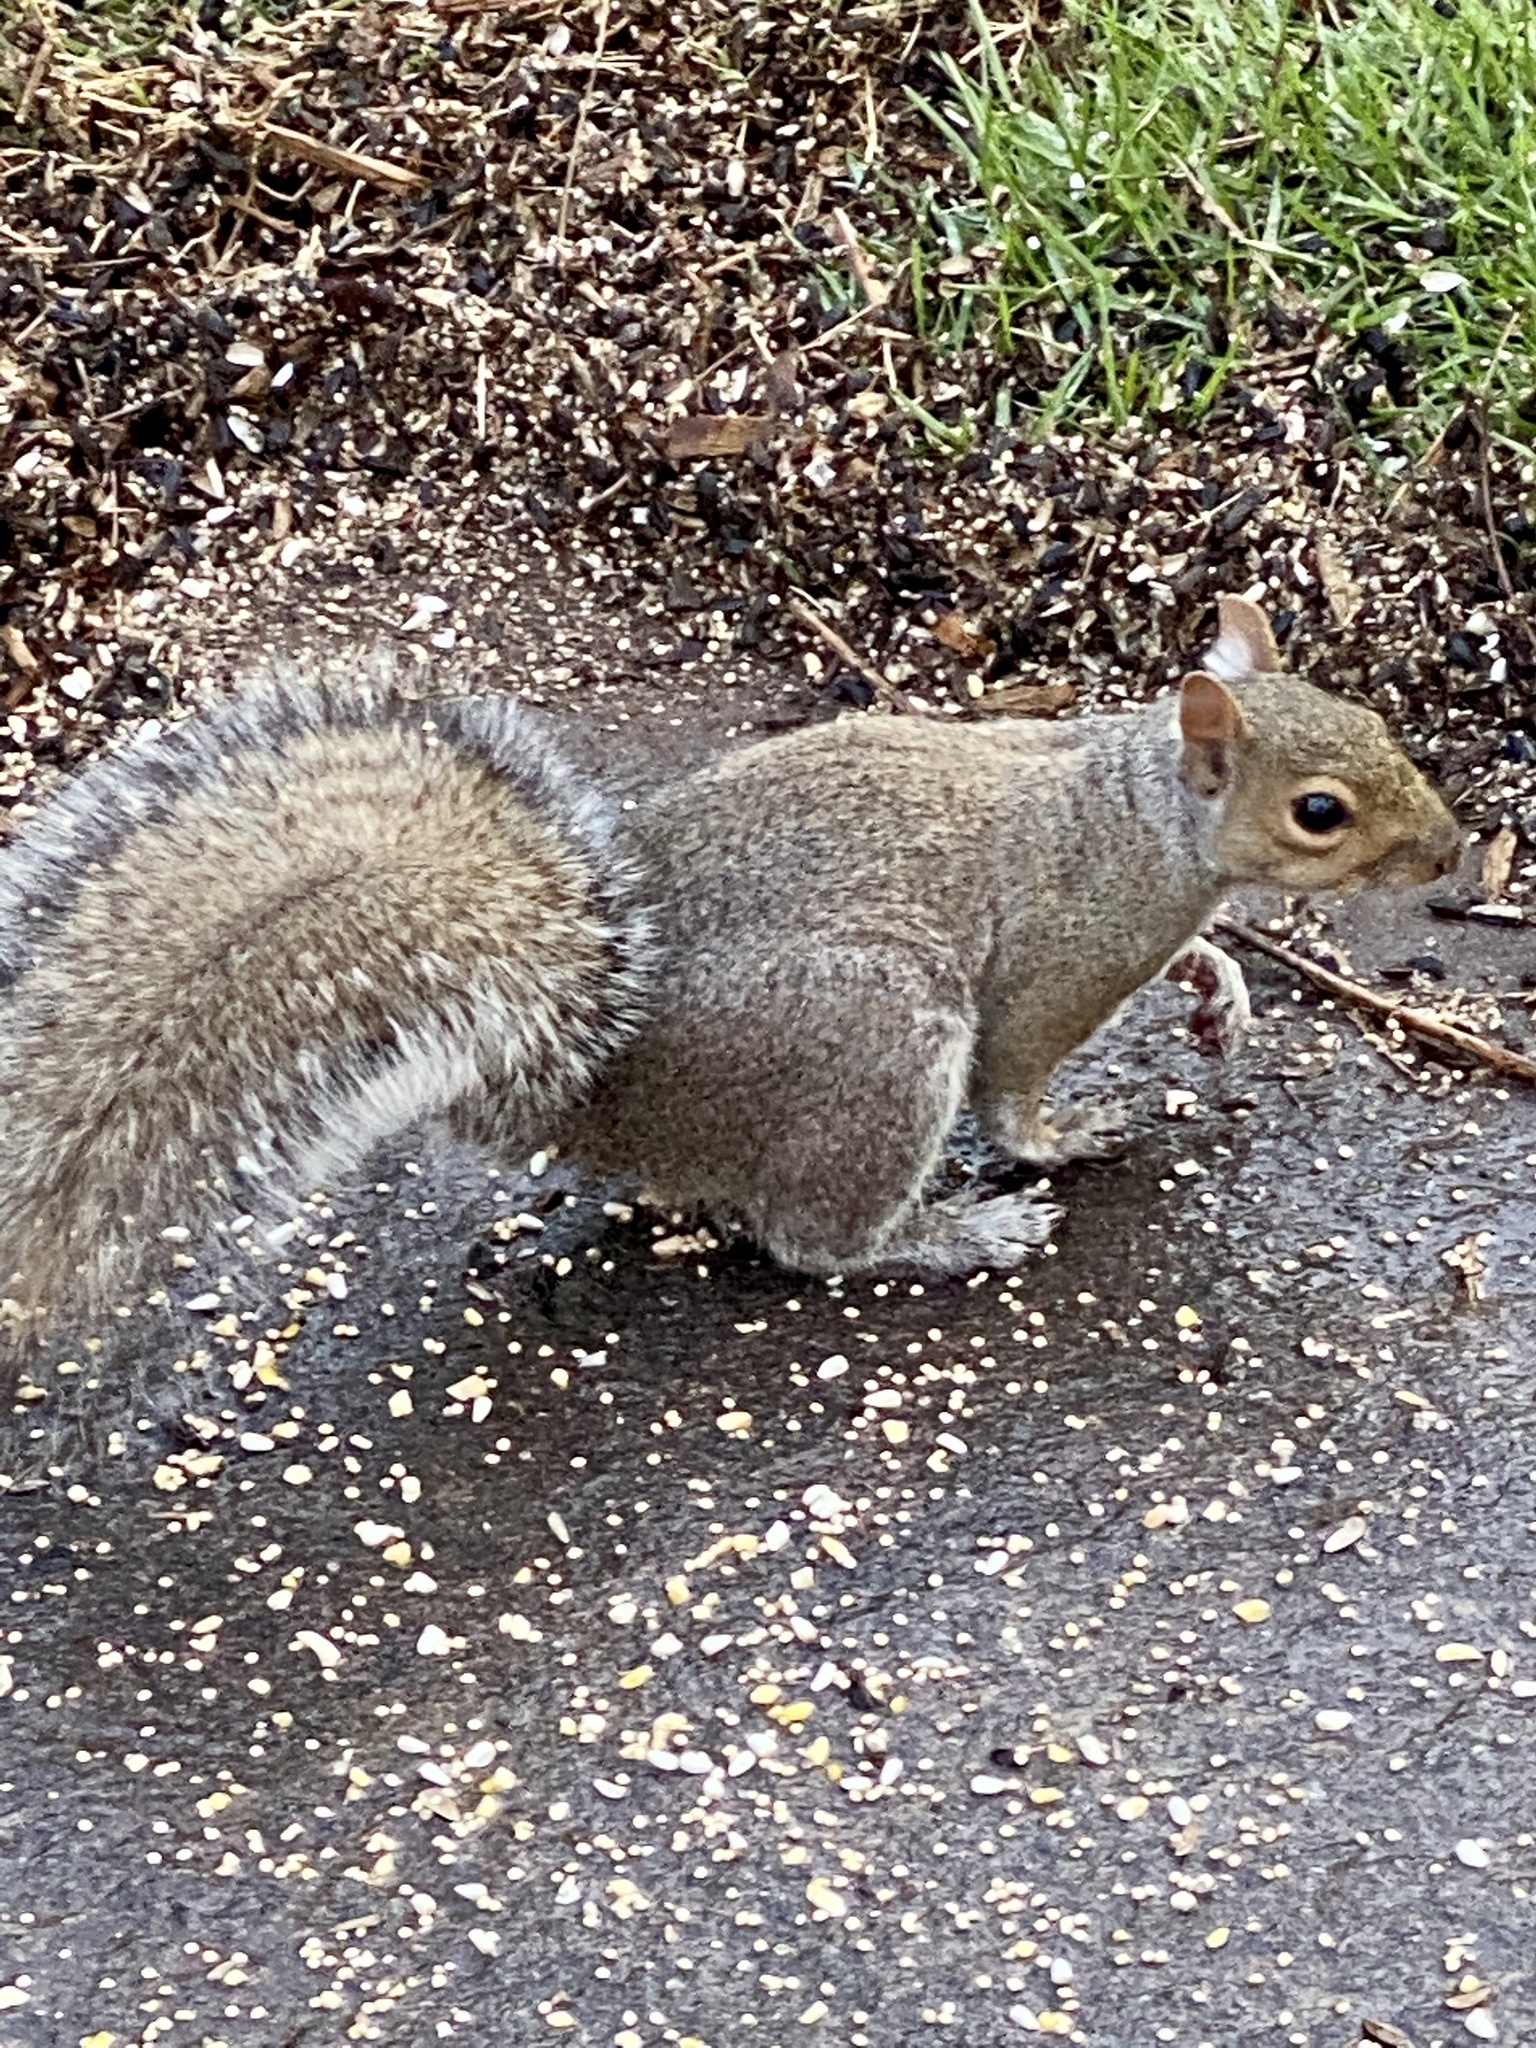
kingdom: Animalia
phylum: Chordata
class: Mammalia
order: Rodentia
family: Sciuridae
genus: Sciurus
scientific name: Sciurus carolinensis
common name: Eastern gray squirrel
